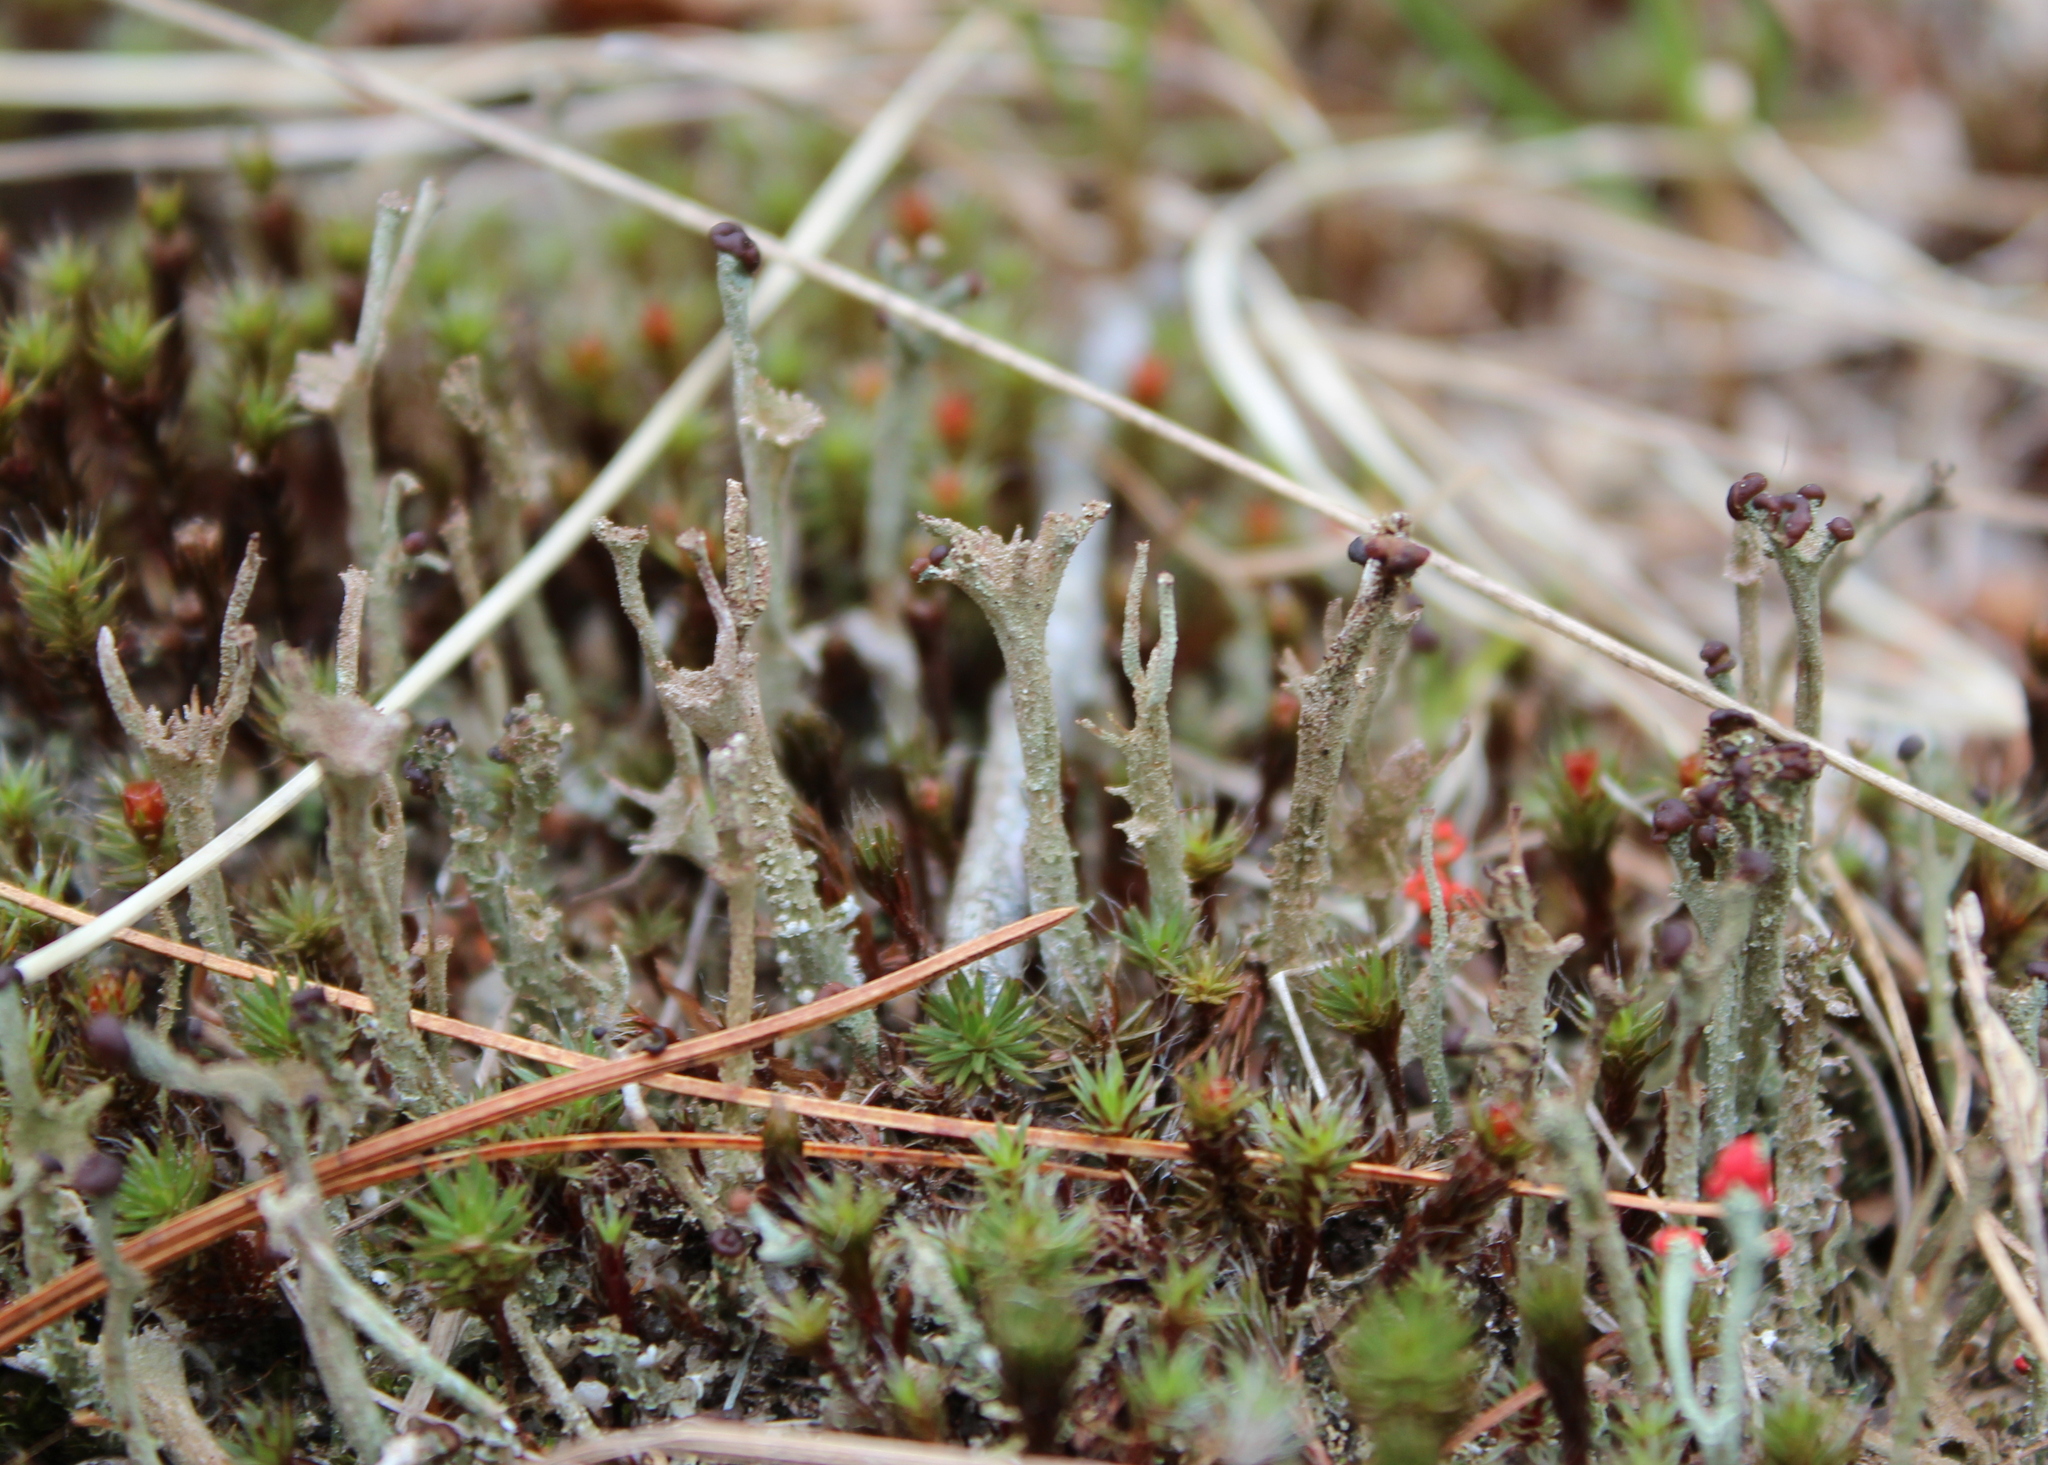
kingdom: Fungi
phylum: Ascomycota
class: Lecanoromycetes
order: Lecanorales
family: Cladoniaceae
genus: Cladonia
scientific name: Cladonia rei
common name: Wand lichen
